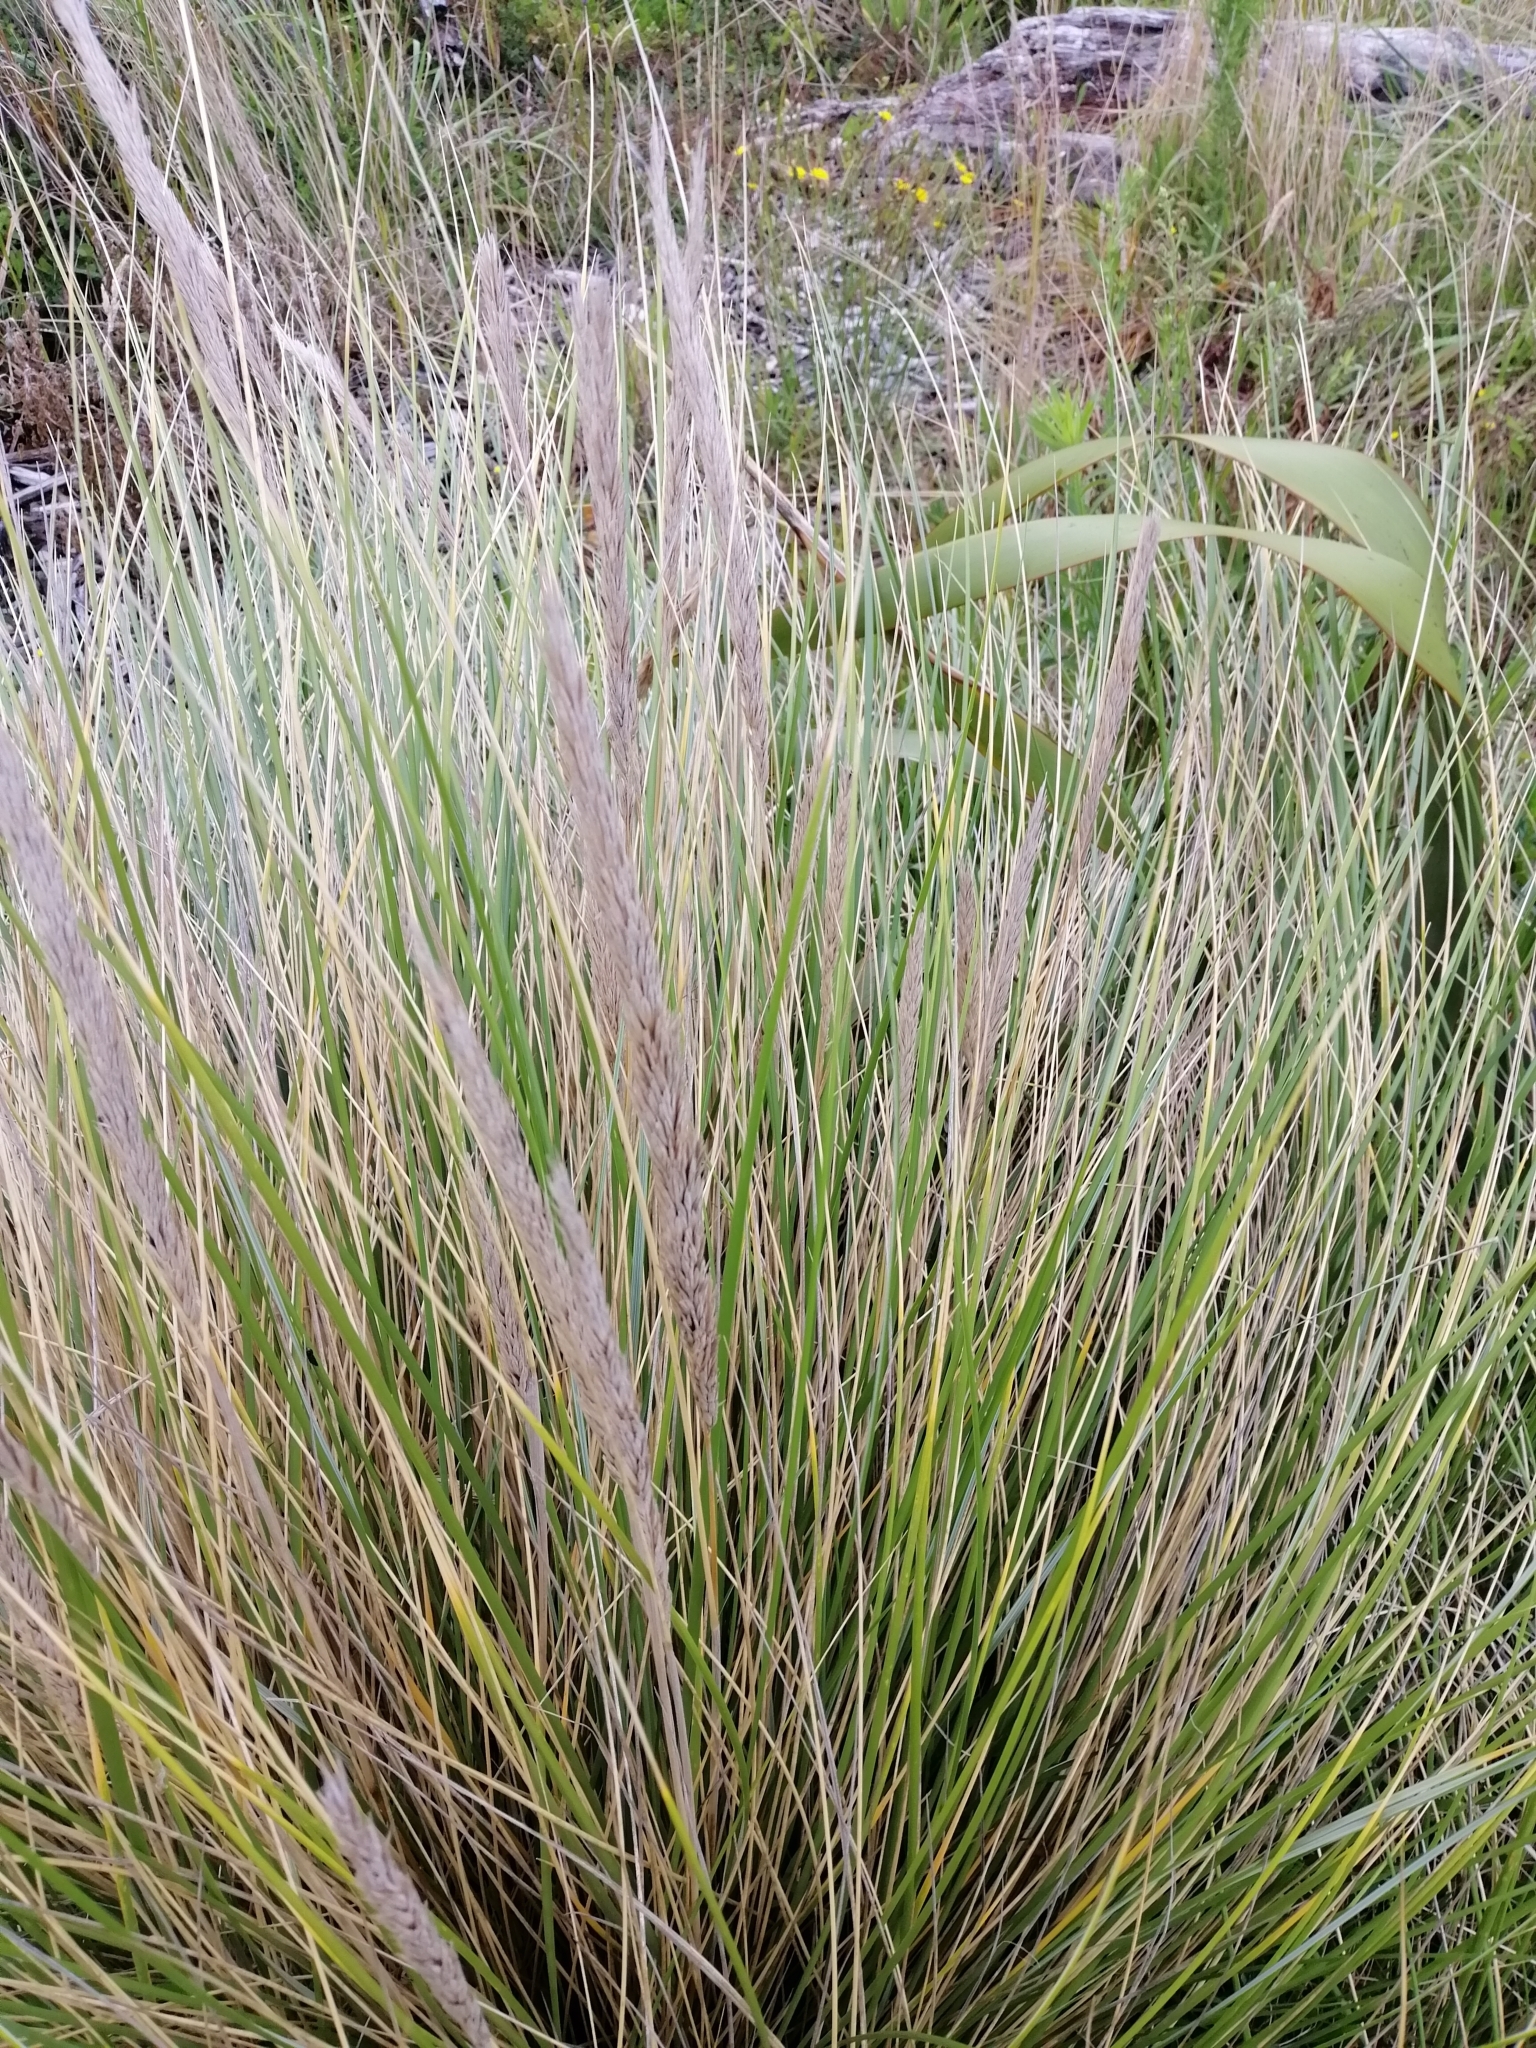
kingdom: Plantae
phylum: Tracheophyta
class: Liliopsida
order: Poales
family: Poaceae
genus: Calamagrostis
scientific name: Calamagrostis arenaria
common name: European beachgrass
